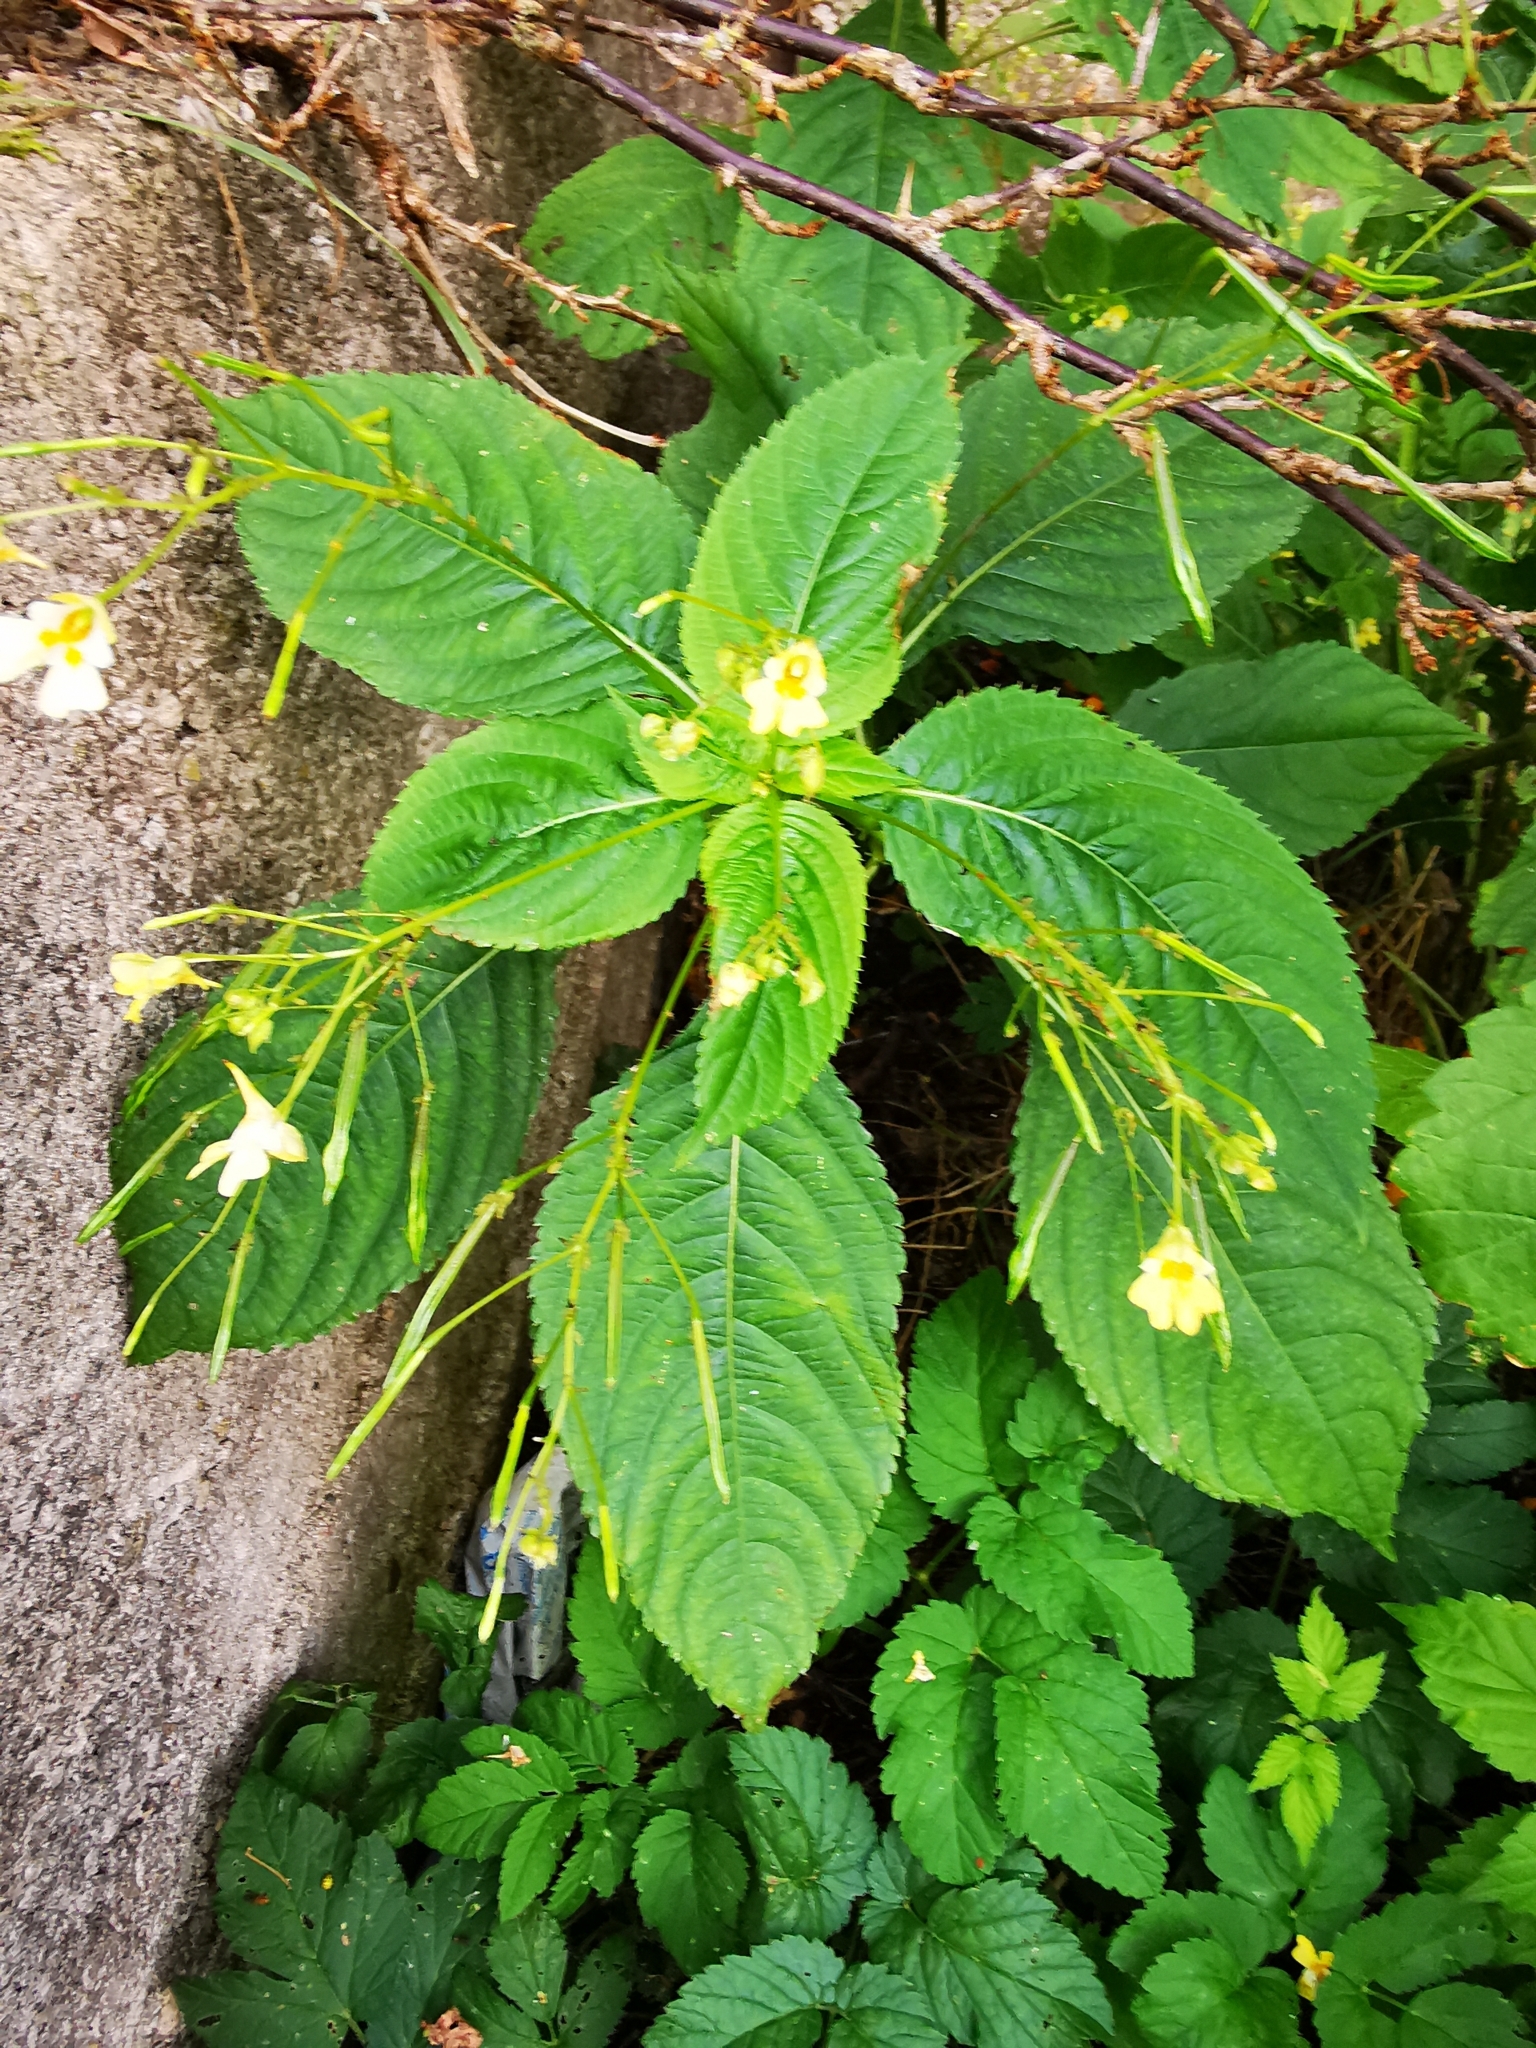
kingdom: Plantae
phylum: Tracheophyta
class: Magnoliopsida
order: Ericales
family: Balsaminaceae
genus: Impatiens
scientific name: Impatiens parviflora
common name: Small balsam
